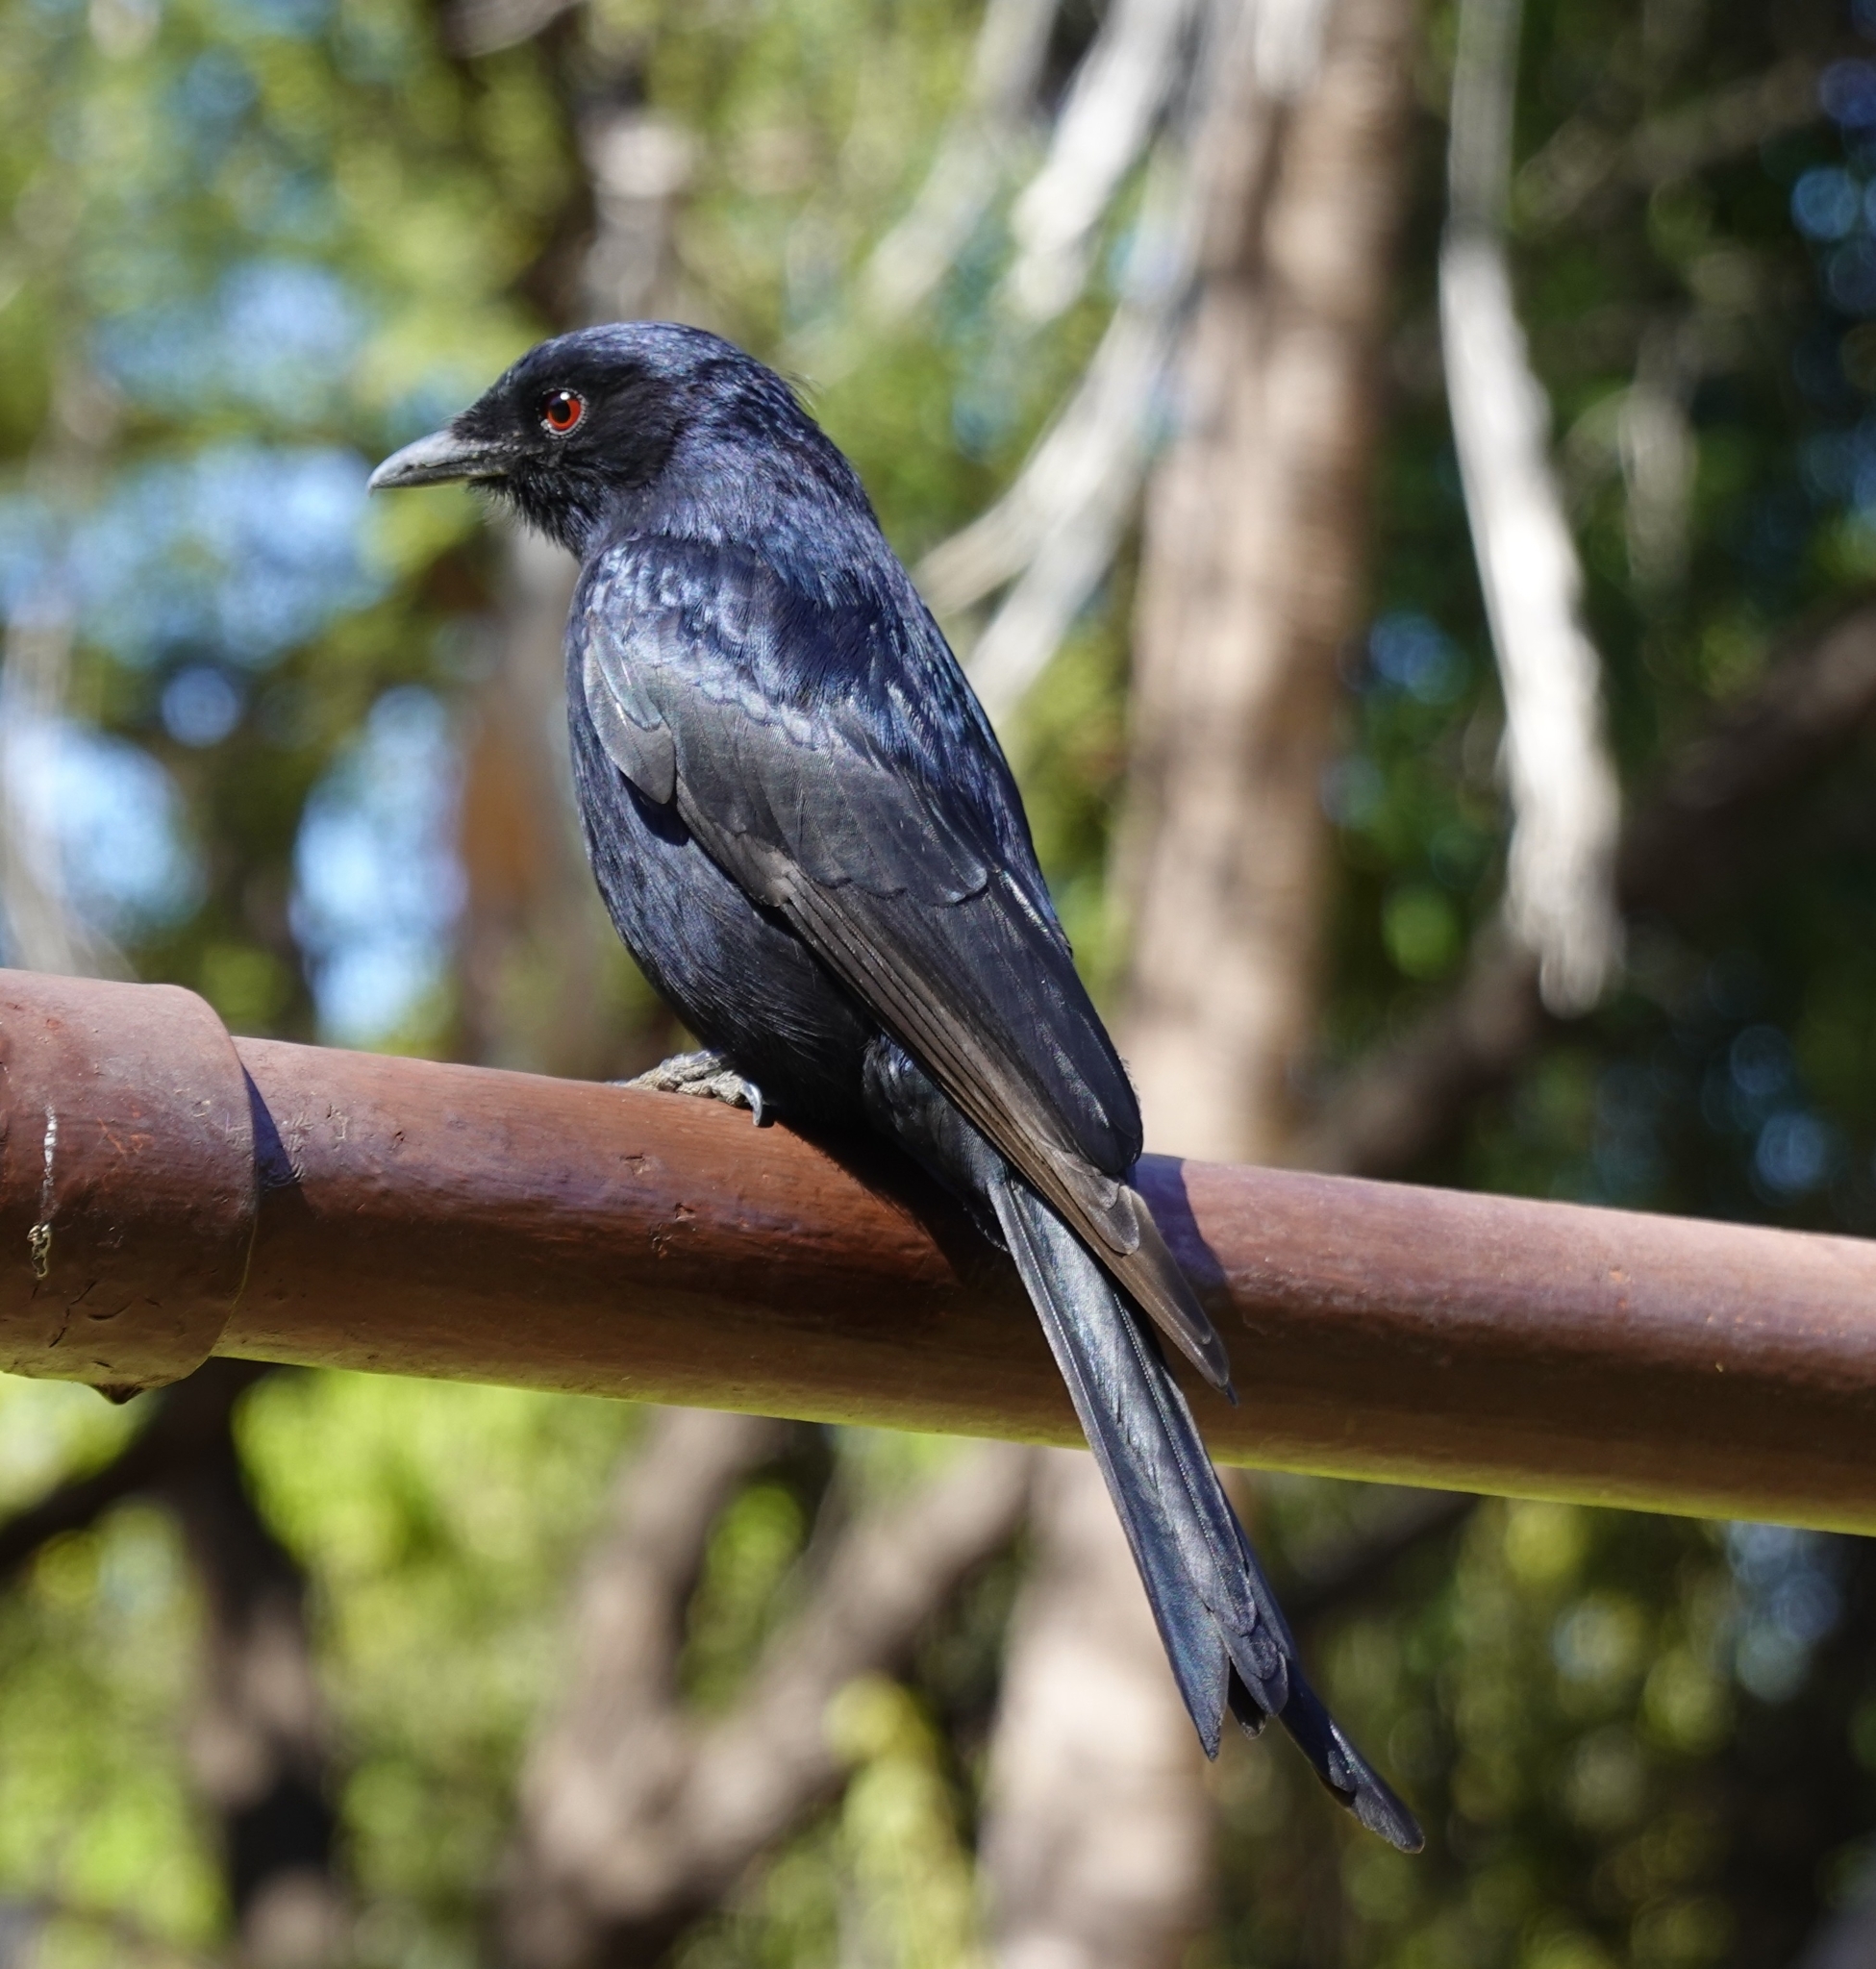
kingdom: Animalia
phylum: Chordata
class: Aves
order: Passeriformes
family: Dicruridae
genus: Dicrurus
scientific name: Dicrurus adsimilis
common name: Fork-tailed drongo
